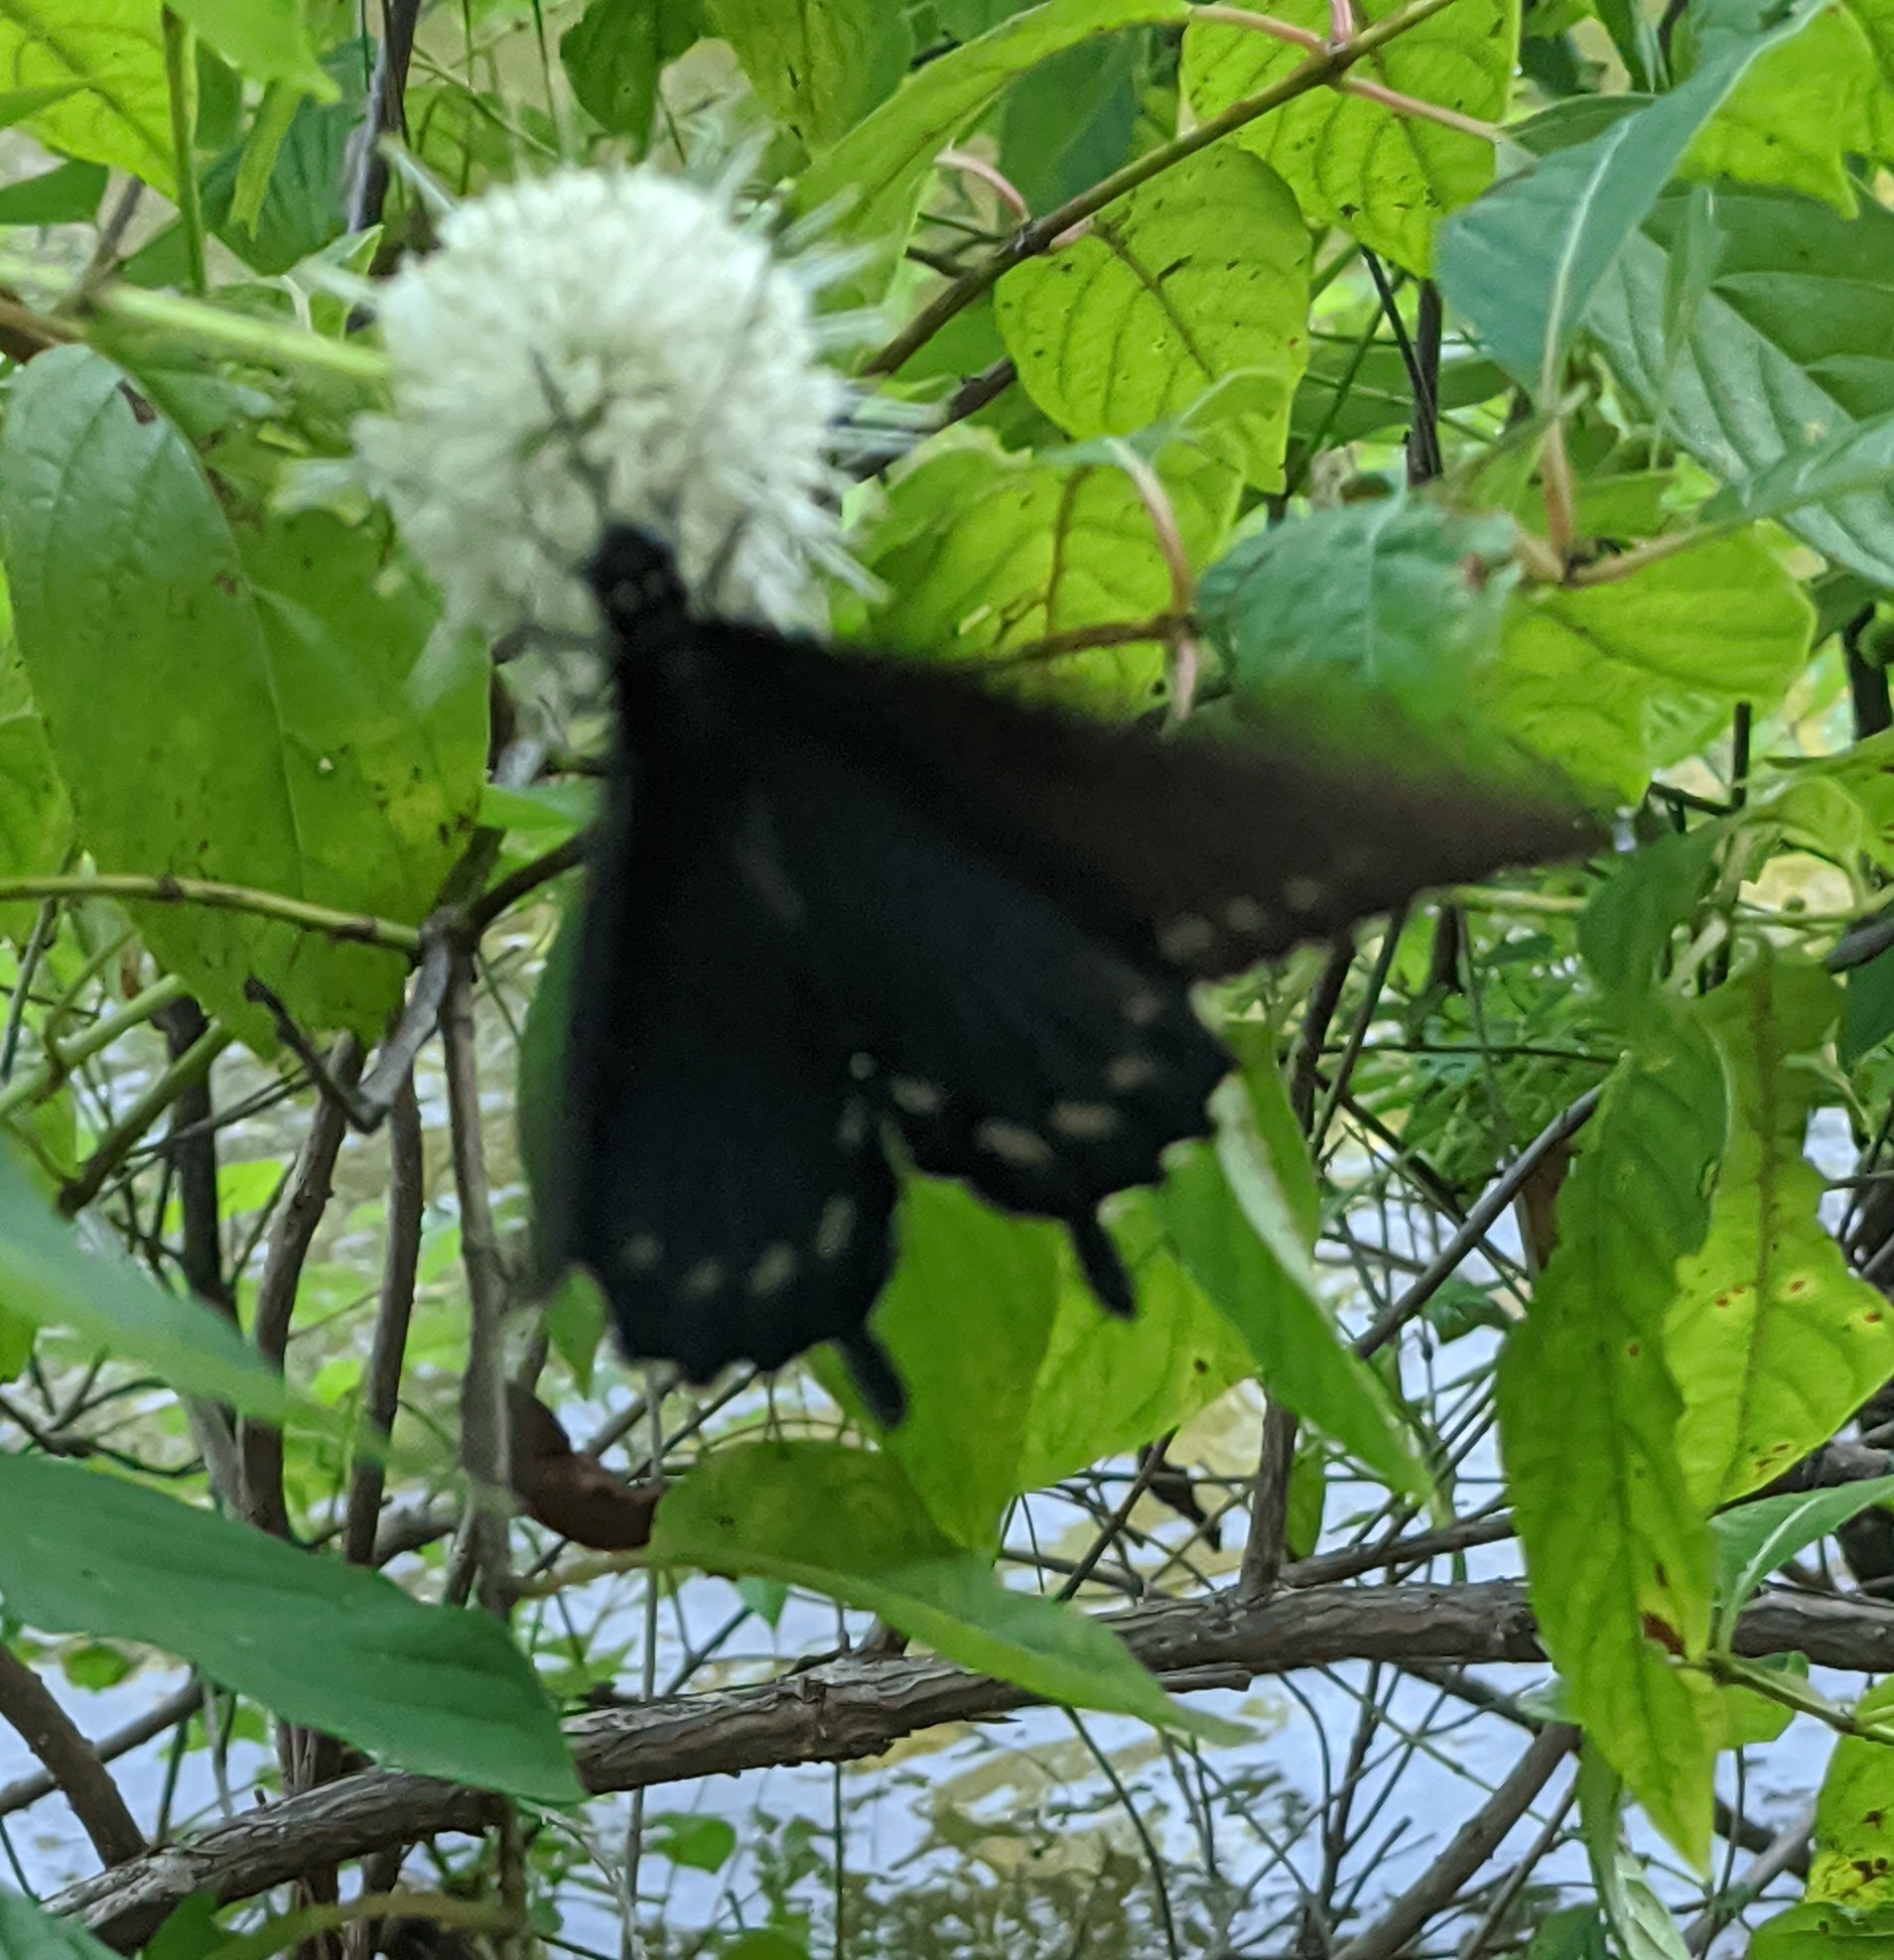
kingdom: Animalia
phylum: Arthropoda
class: Insecta
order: Lepidoptera
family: Papilionidae
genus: Battus
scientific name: Battus philenor
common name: Pipevine swallowtail
